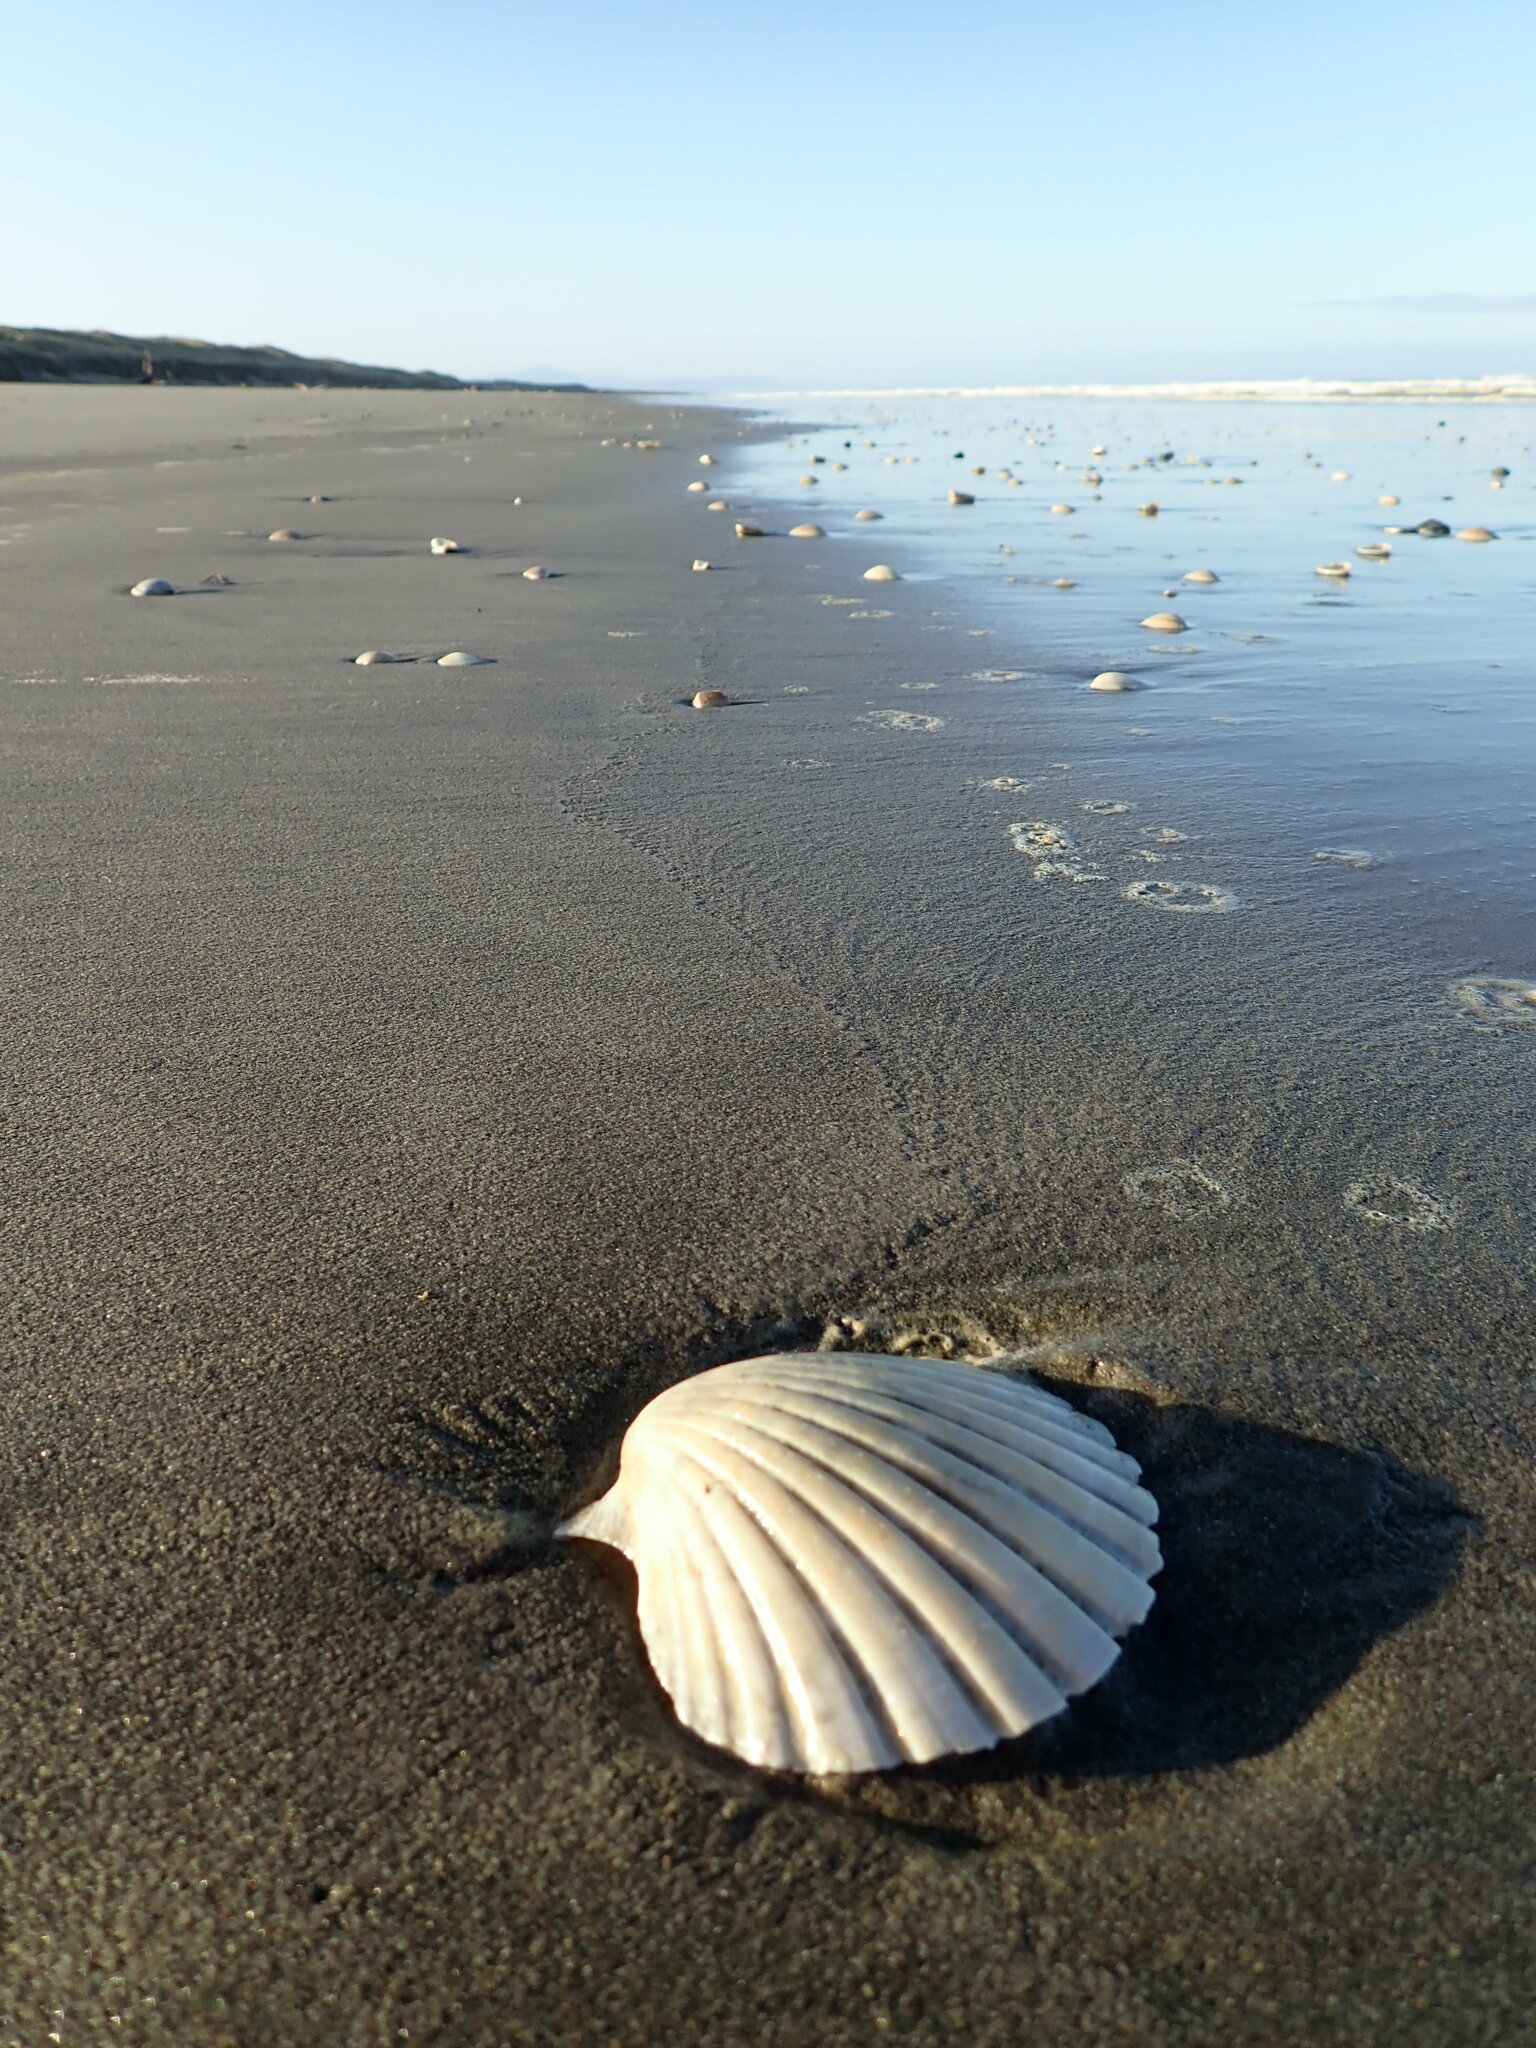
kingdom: Animalia
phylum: Mollusca
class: Bivalvia
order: Pectinida
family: Pectinidae
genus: Pecten
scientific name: Pecten novaezelandiae
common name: New zealand scallop
